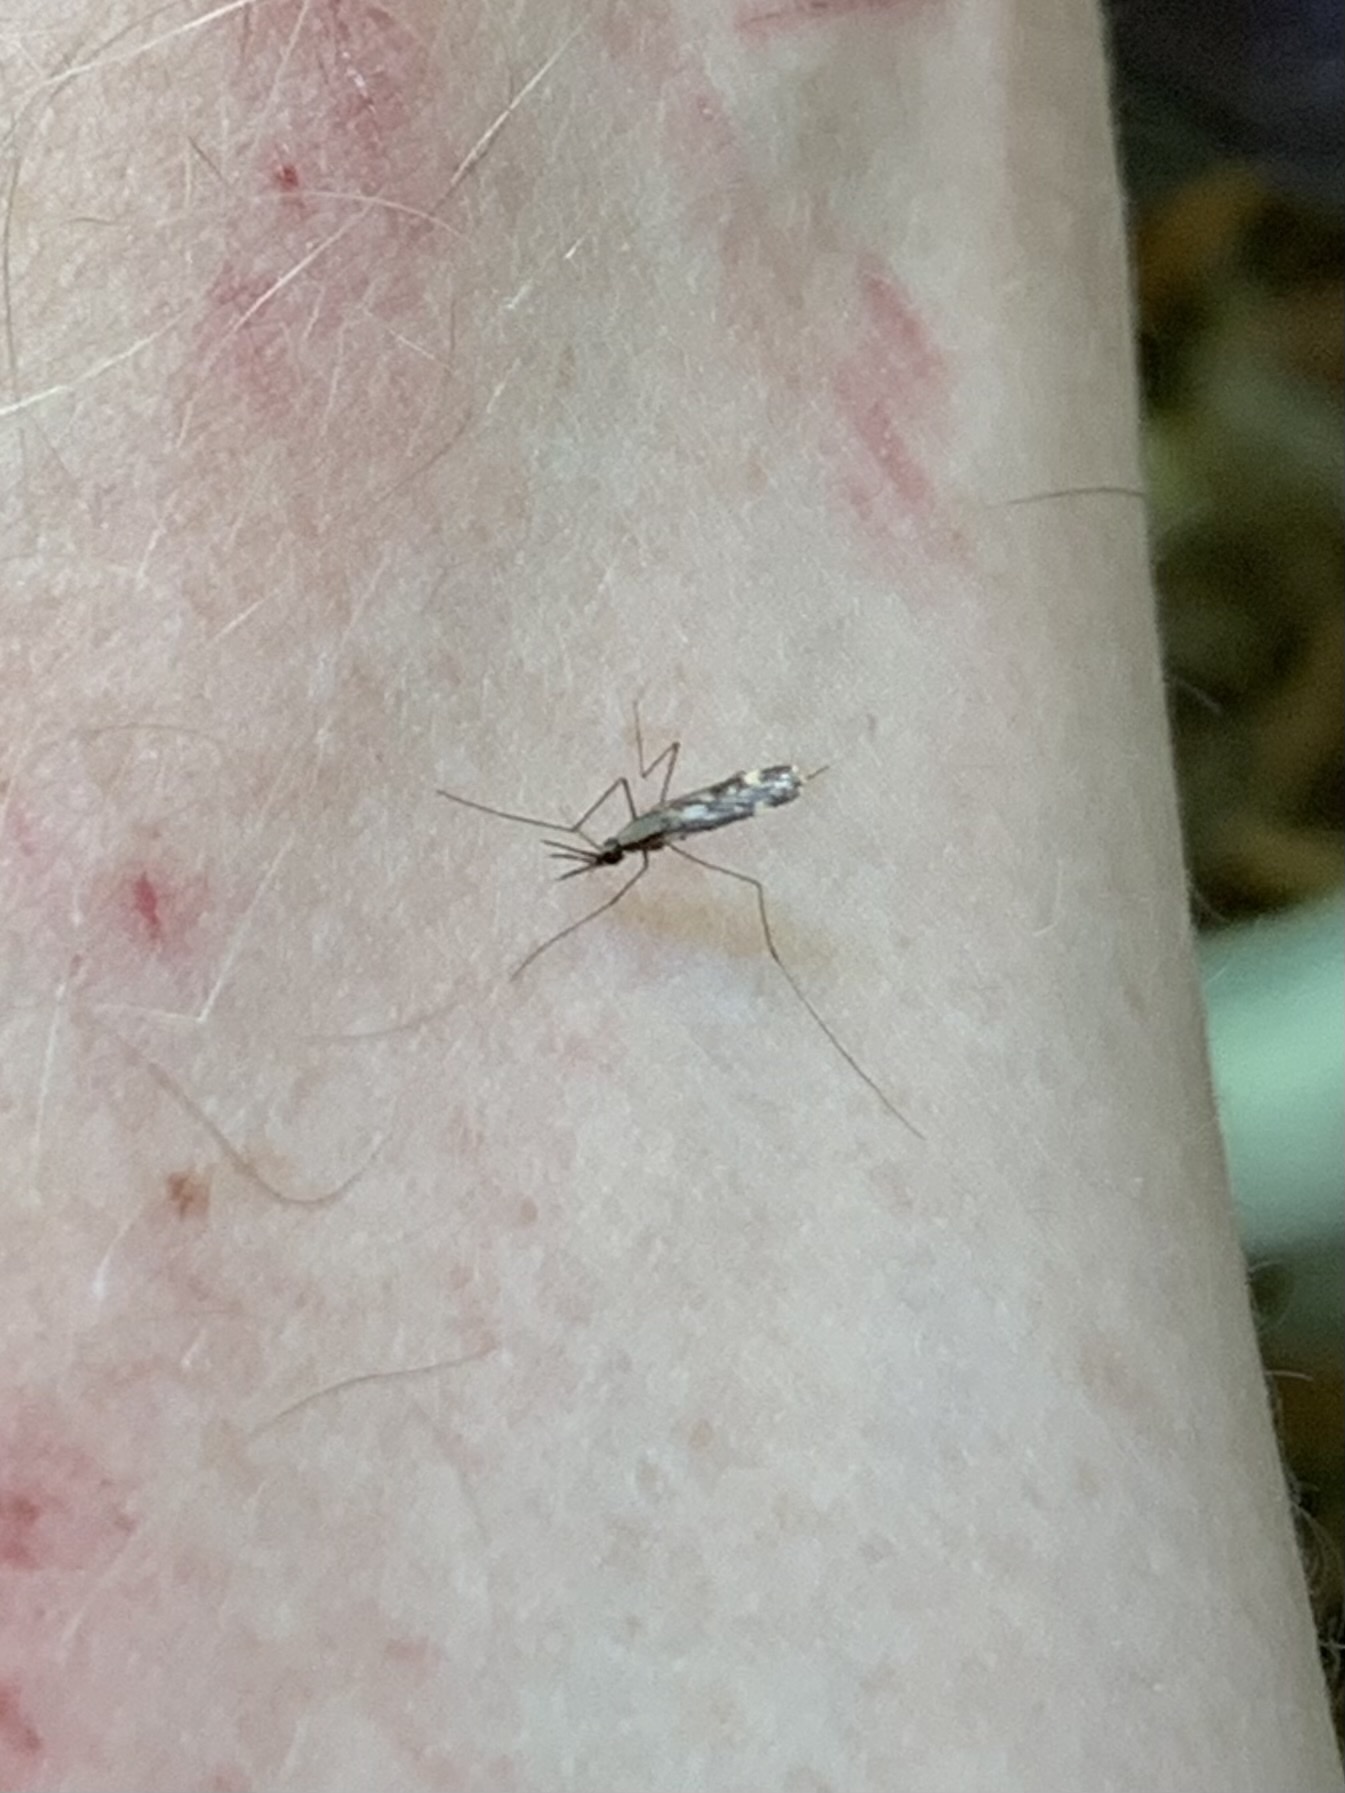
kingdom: Animalia
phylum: Arthropoda
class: Insecta
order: Diptera
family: Culicidae
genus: Anopheles
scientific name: Anopheles punctipennis
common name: Woodland malaria mosquito
